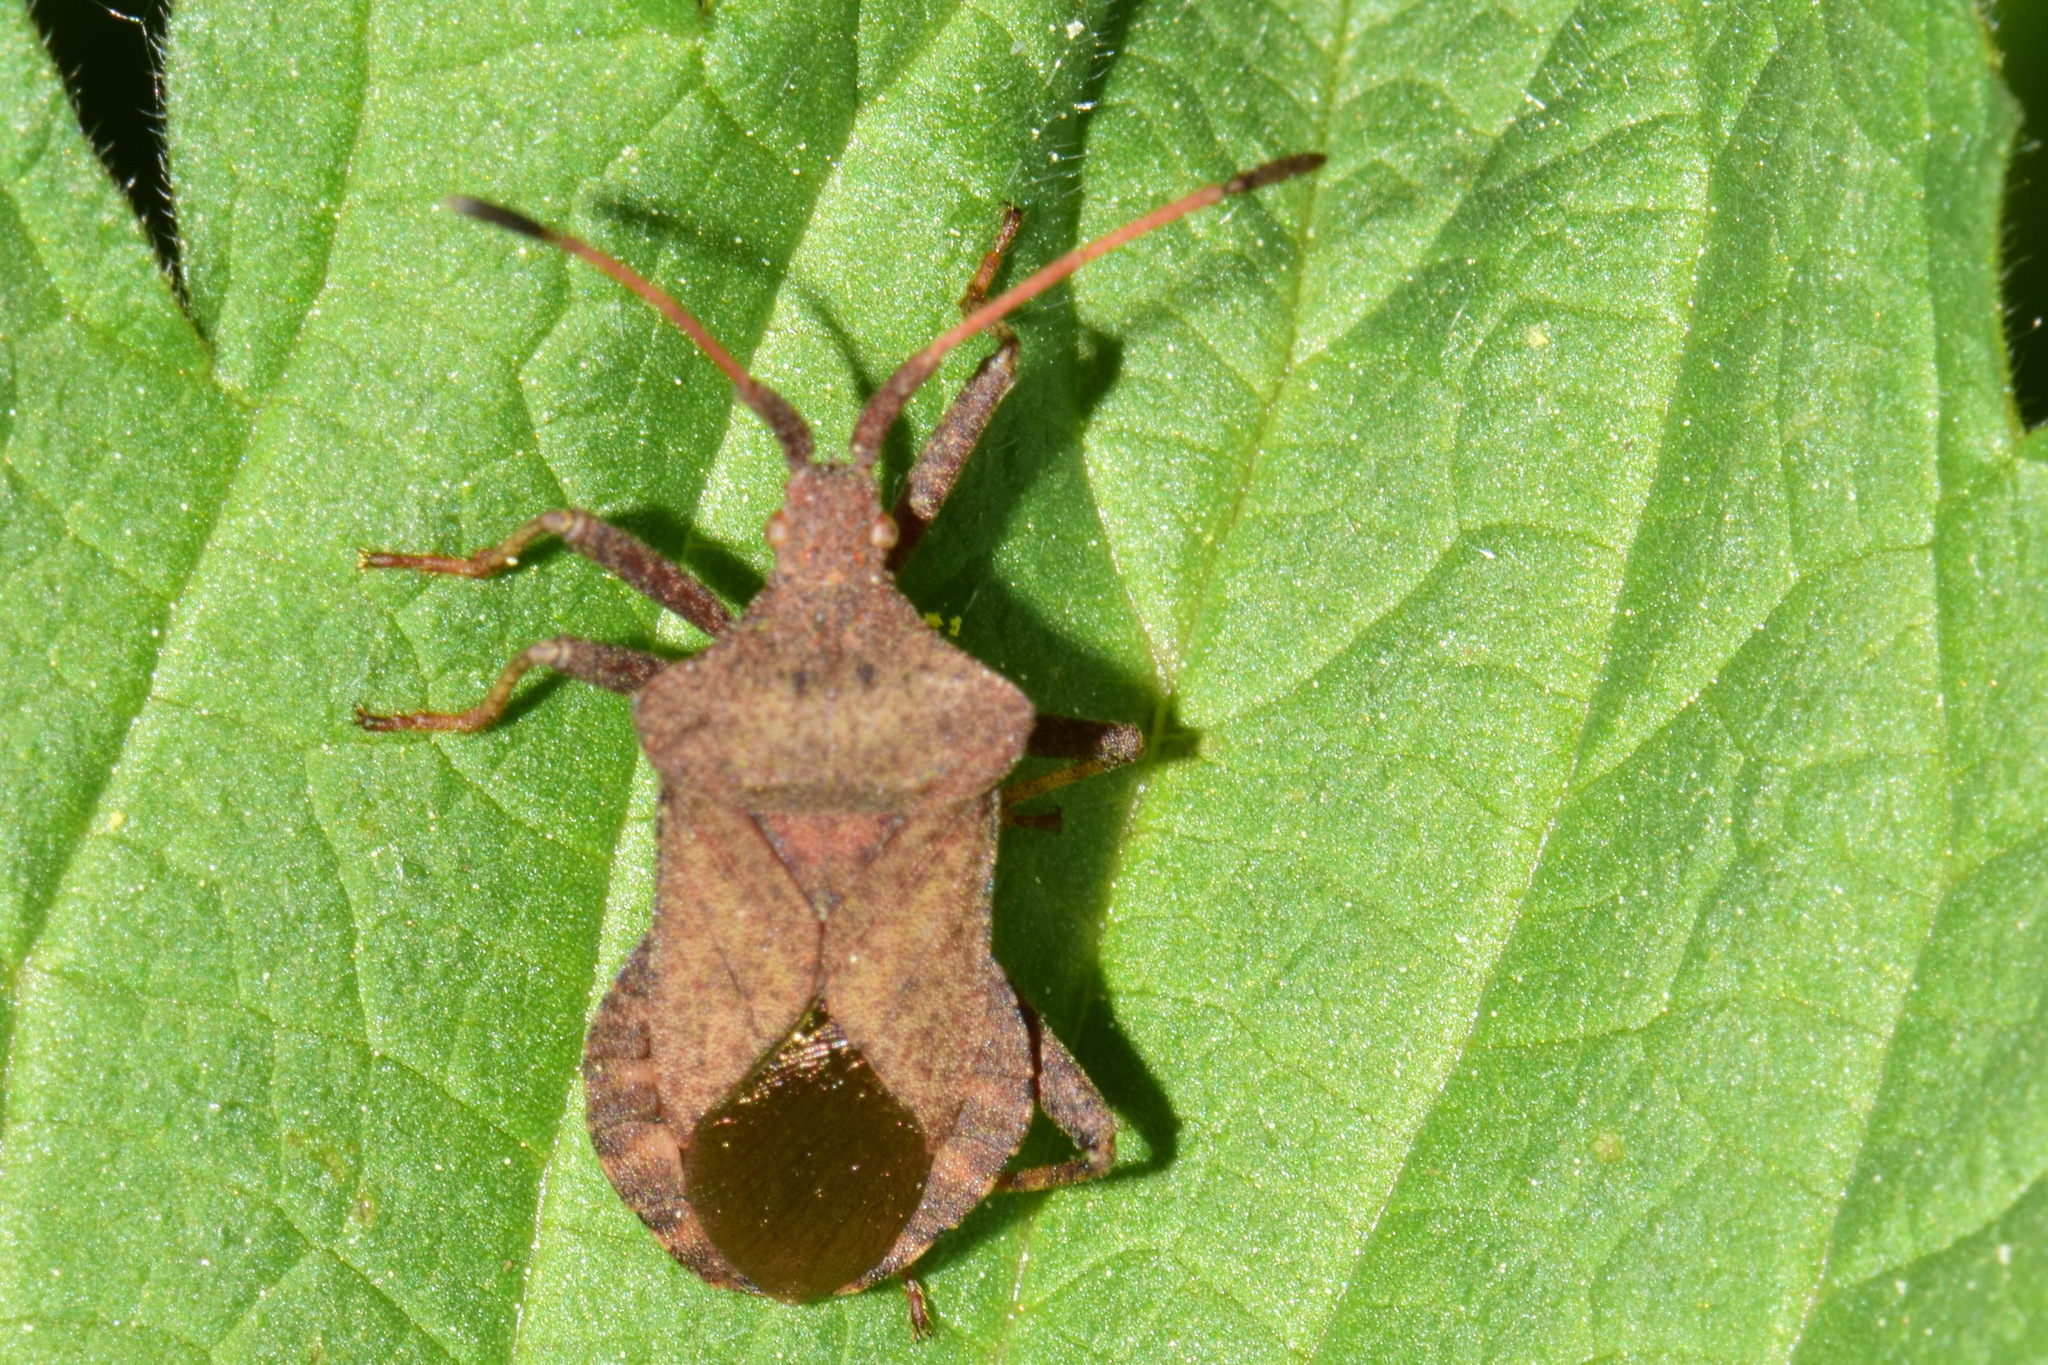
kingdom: Animalia
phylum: Arthropoda
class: Insecta
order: Hemiptera
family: Coreidae
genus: Coreus
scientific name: Coreus marginatus
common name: Dock bug
